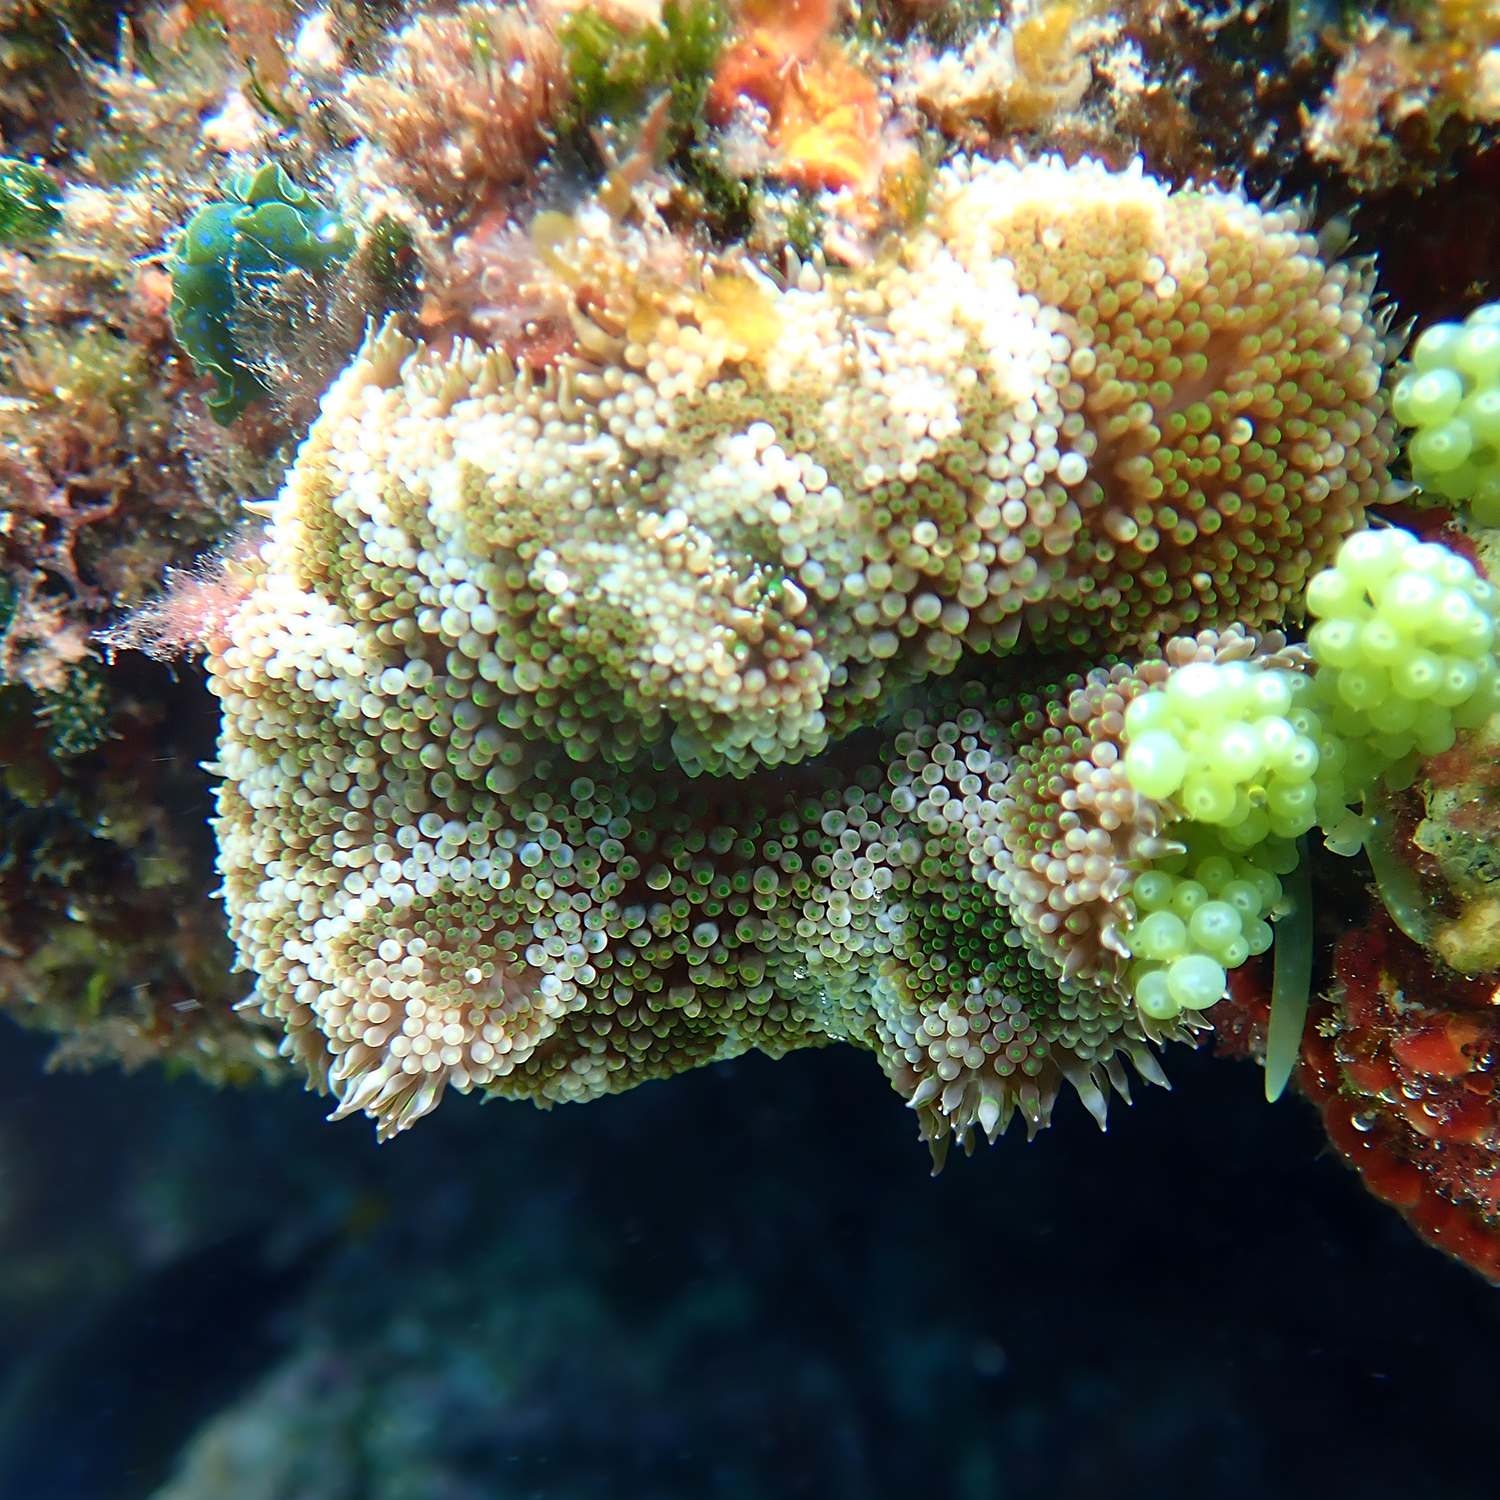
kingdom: Animalia
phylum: Cnidaria
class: Anthozoa
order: Actiniaria
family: Stichodactylidae
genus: Stichodactyla
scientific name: Stichodactyla tapetum
